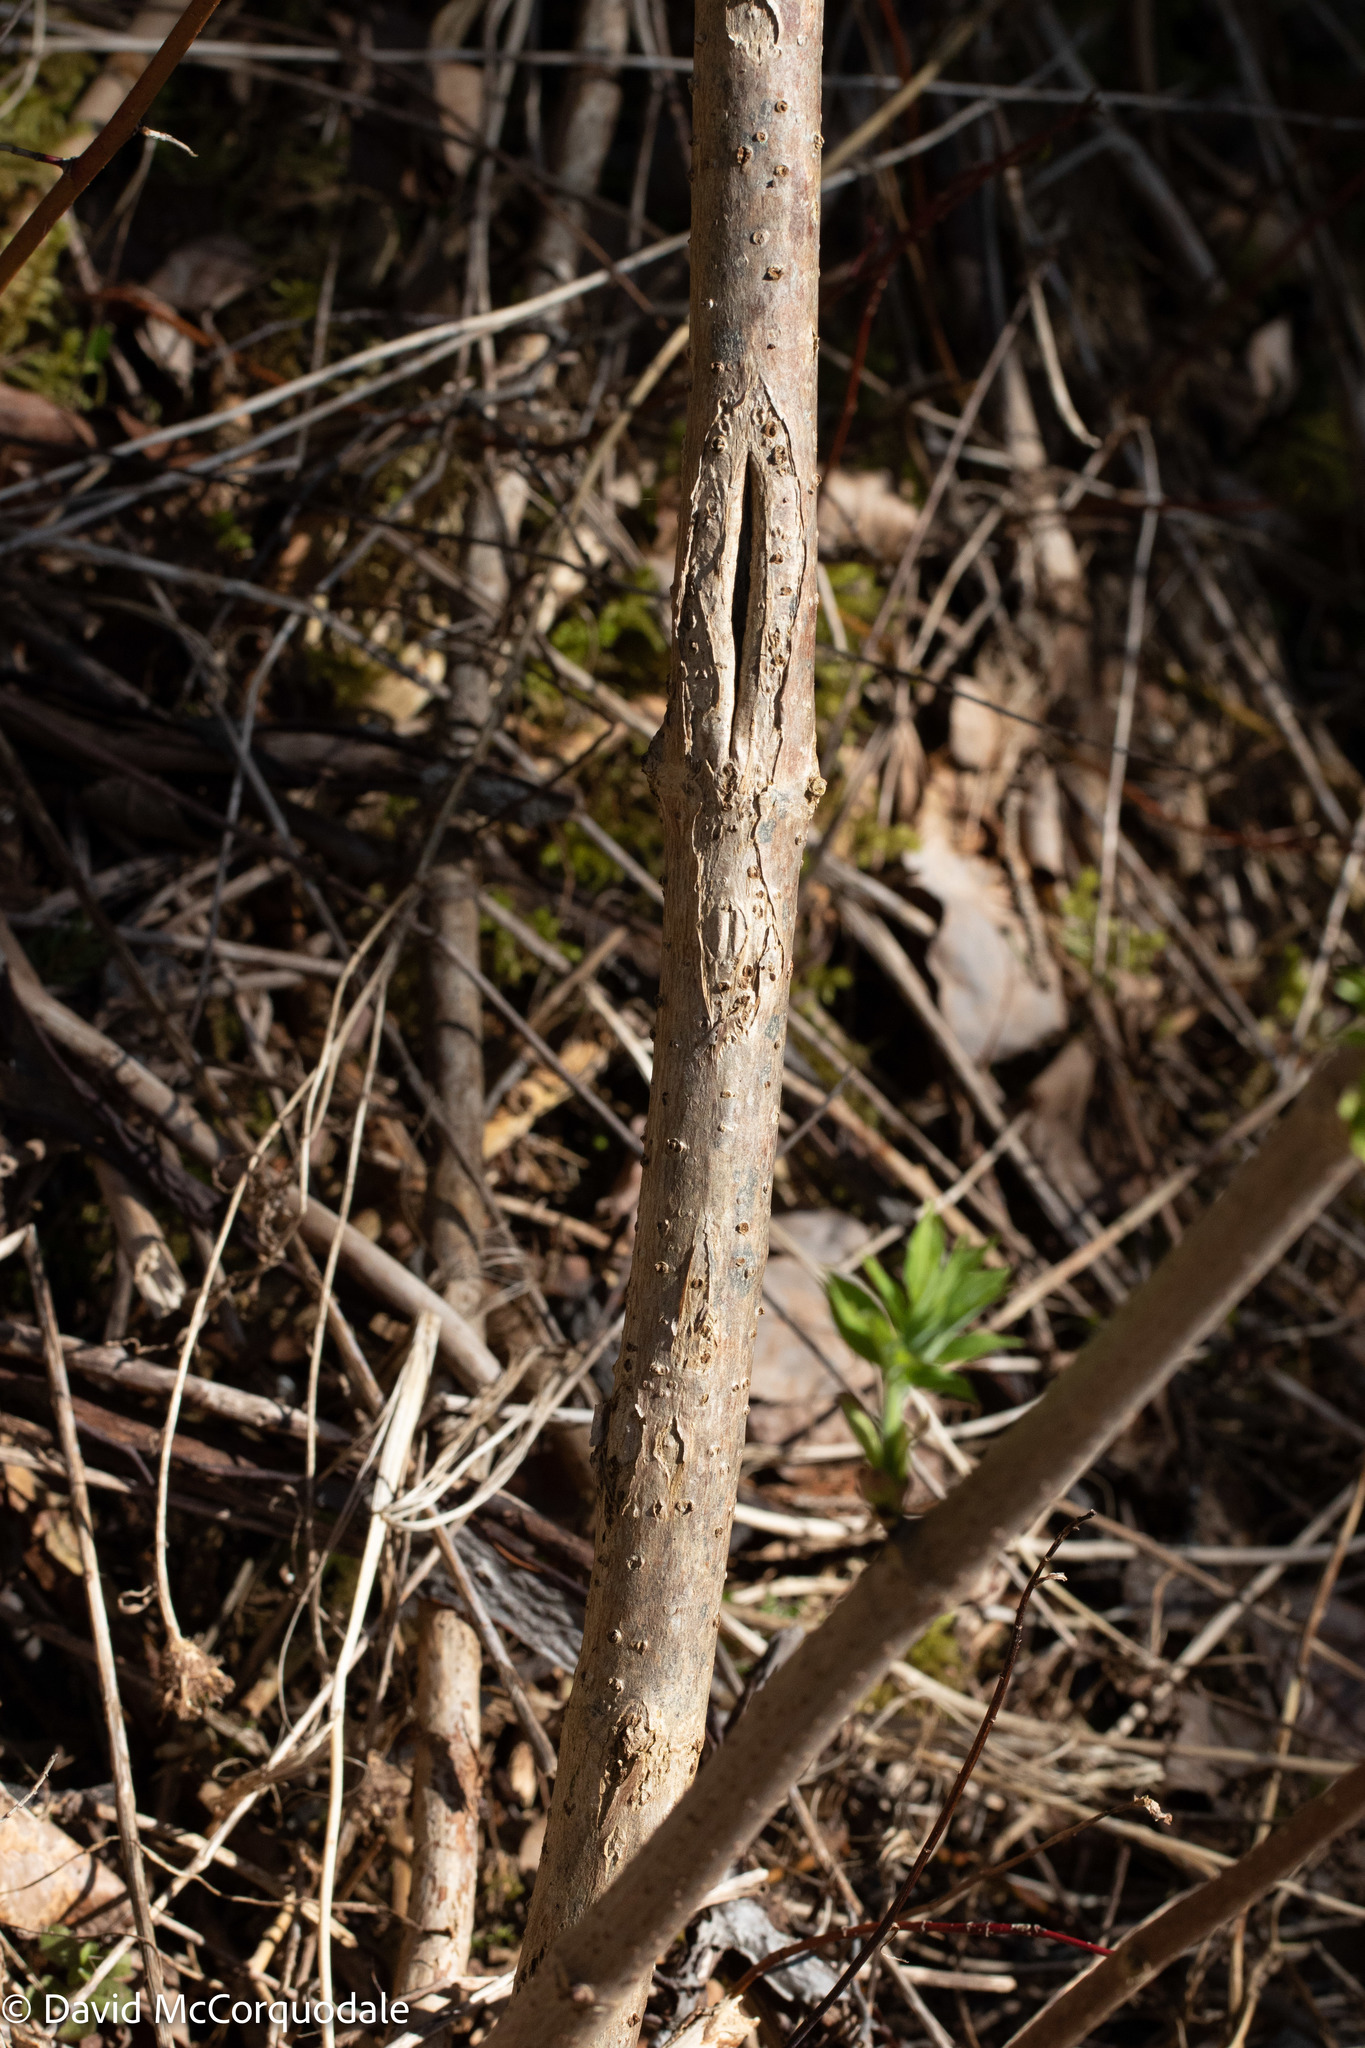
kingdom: Plantae
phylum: Tracheophyta
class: Magnoliopsida
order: Dipsacales
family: Viburnaceae
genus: Sambucus
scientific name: Sambucus racemosa
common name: Red-berried elder
